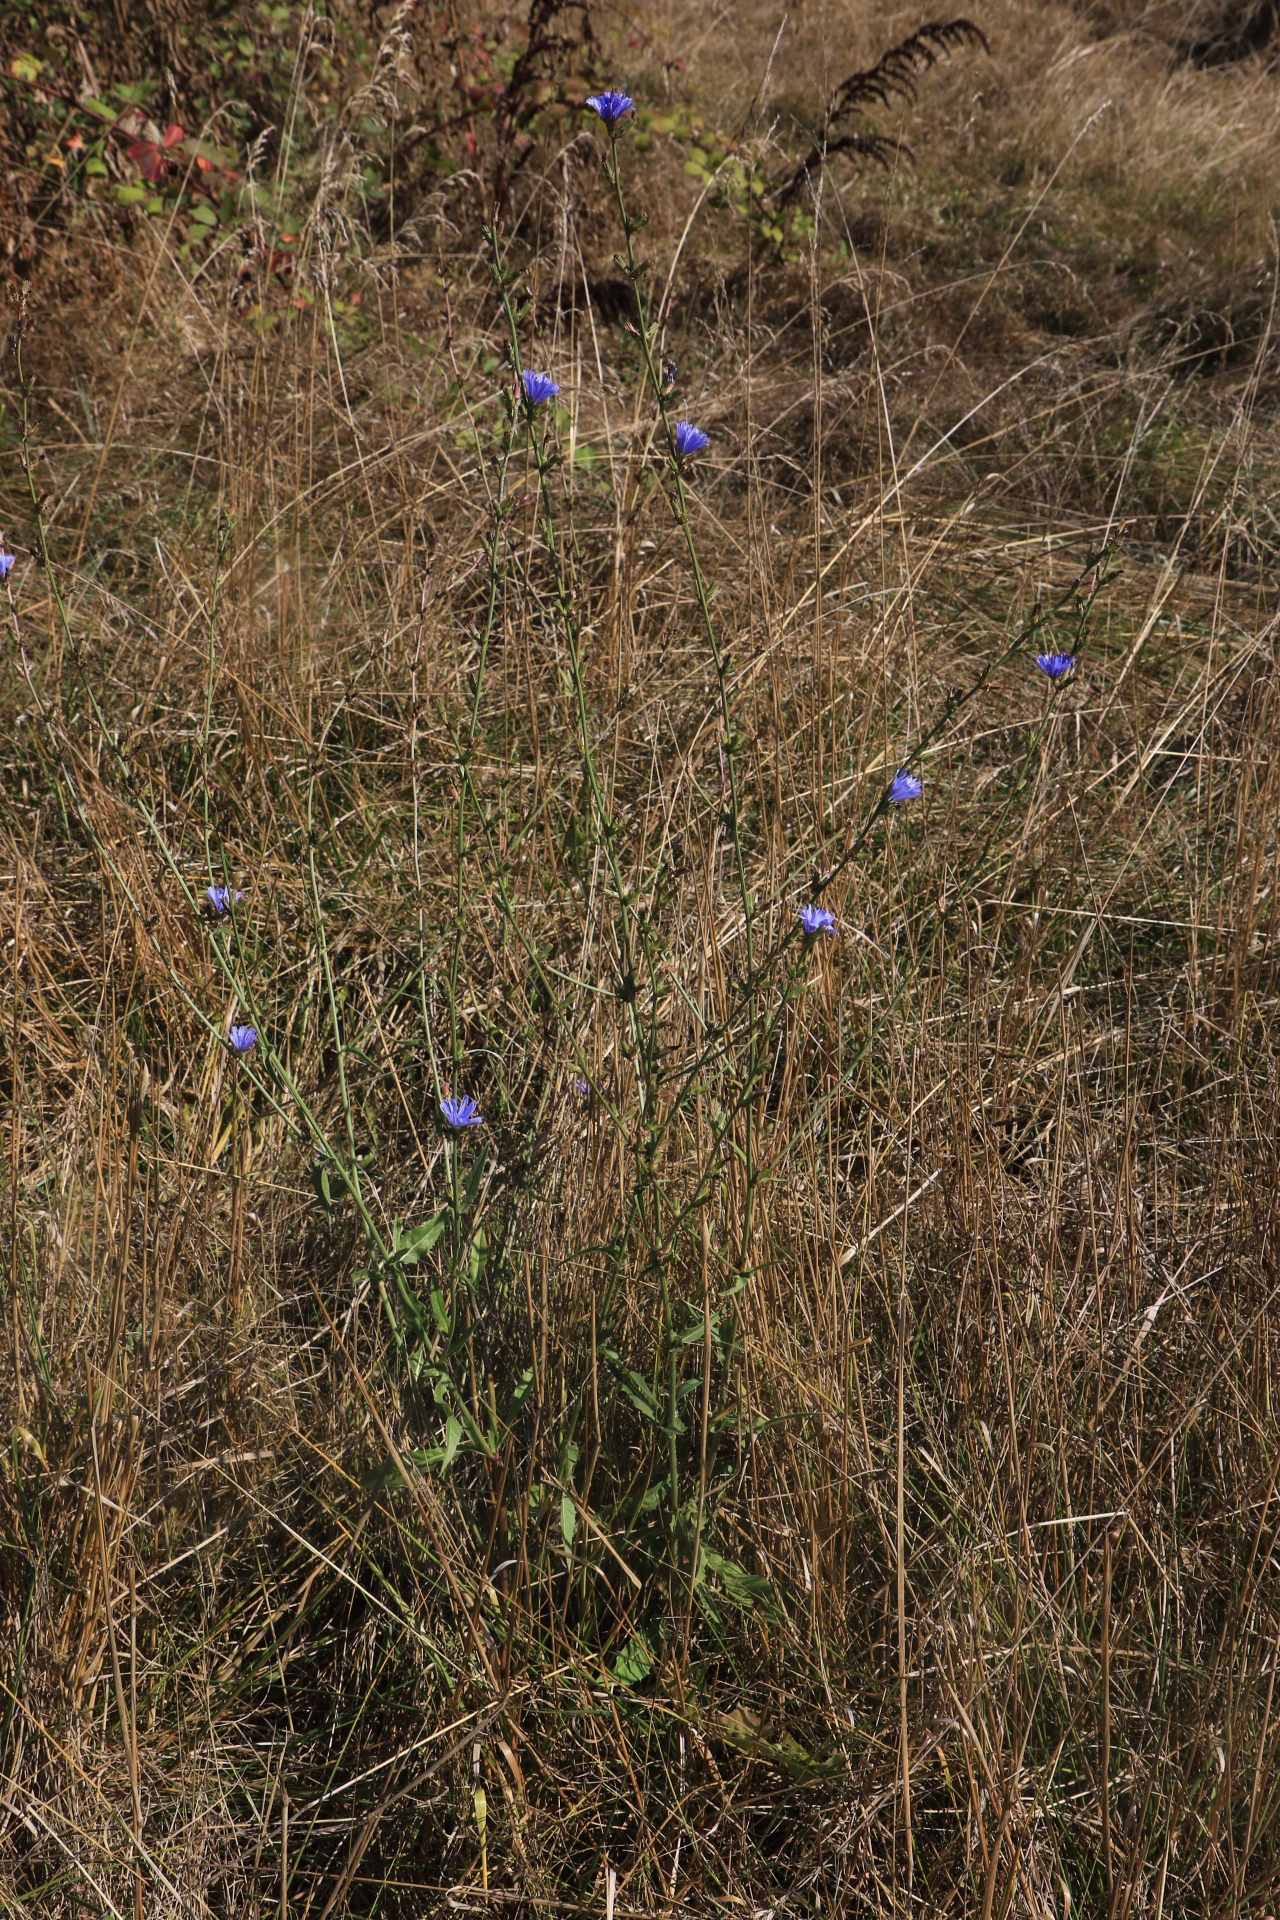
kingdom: Plantae
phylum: Tracheophyta
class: Magnoliopsida
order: Asterales
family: Asteraceae
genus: Cichorium
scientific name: Cichorium intybus
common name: Chicory
